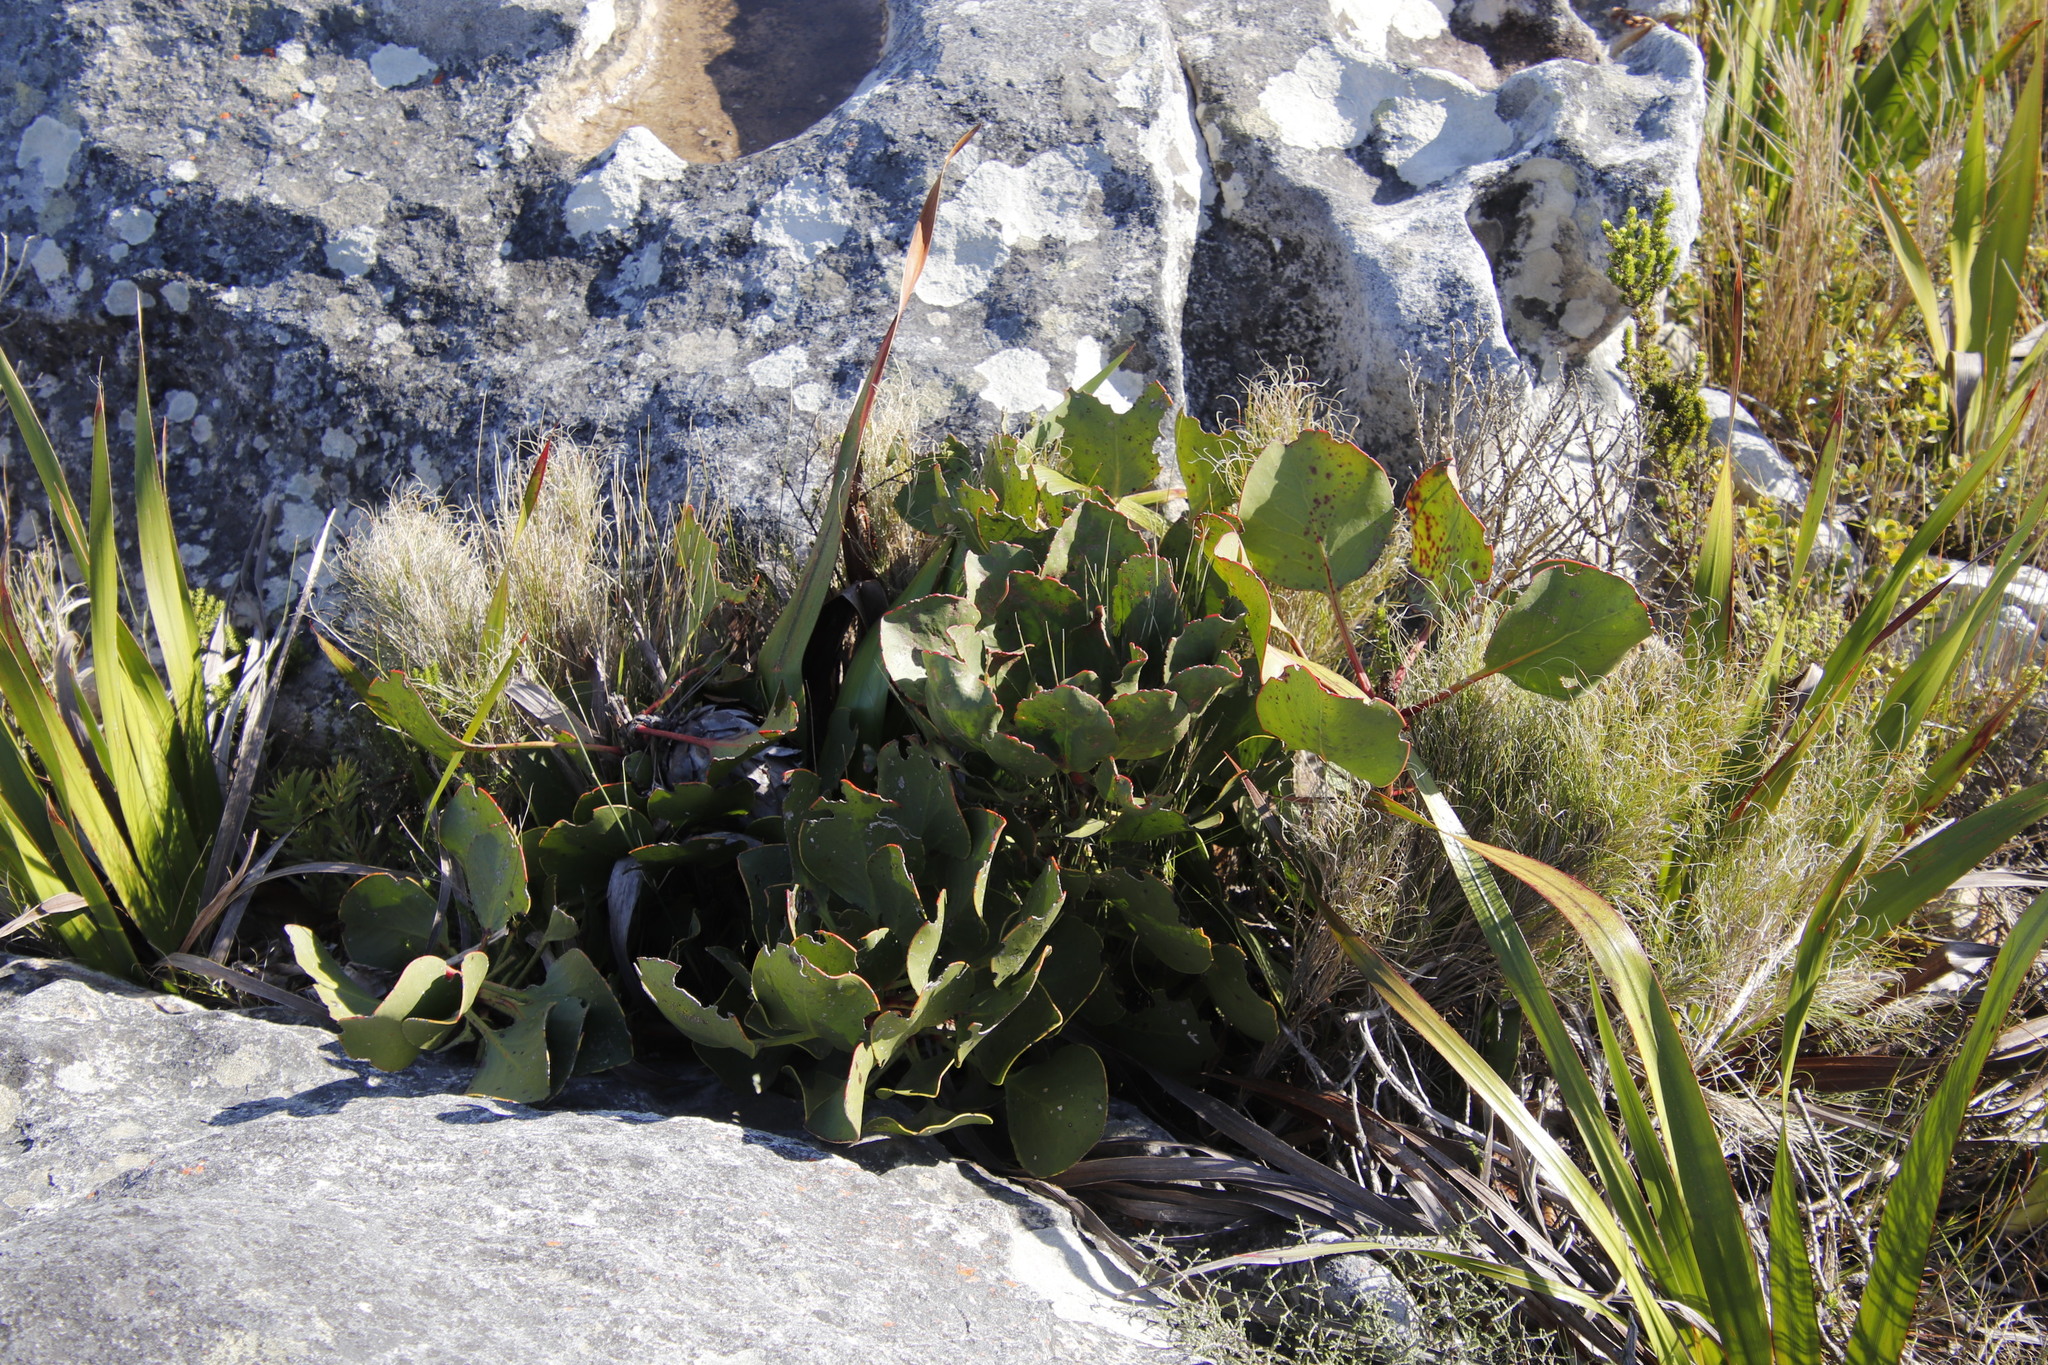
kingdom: Plantae
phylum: Tracheophyta
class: Magnoliopsida
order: Proteales
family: Proteaceae
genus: Protea
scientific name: Protea cynaroides
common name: King protea
